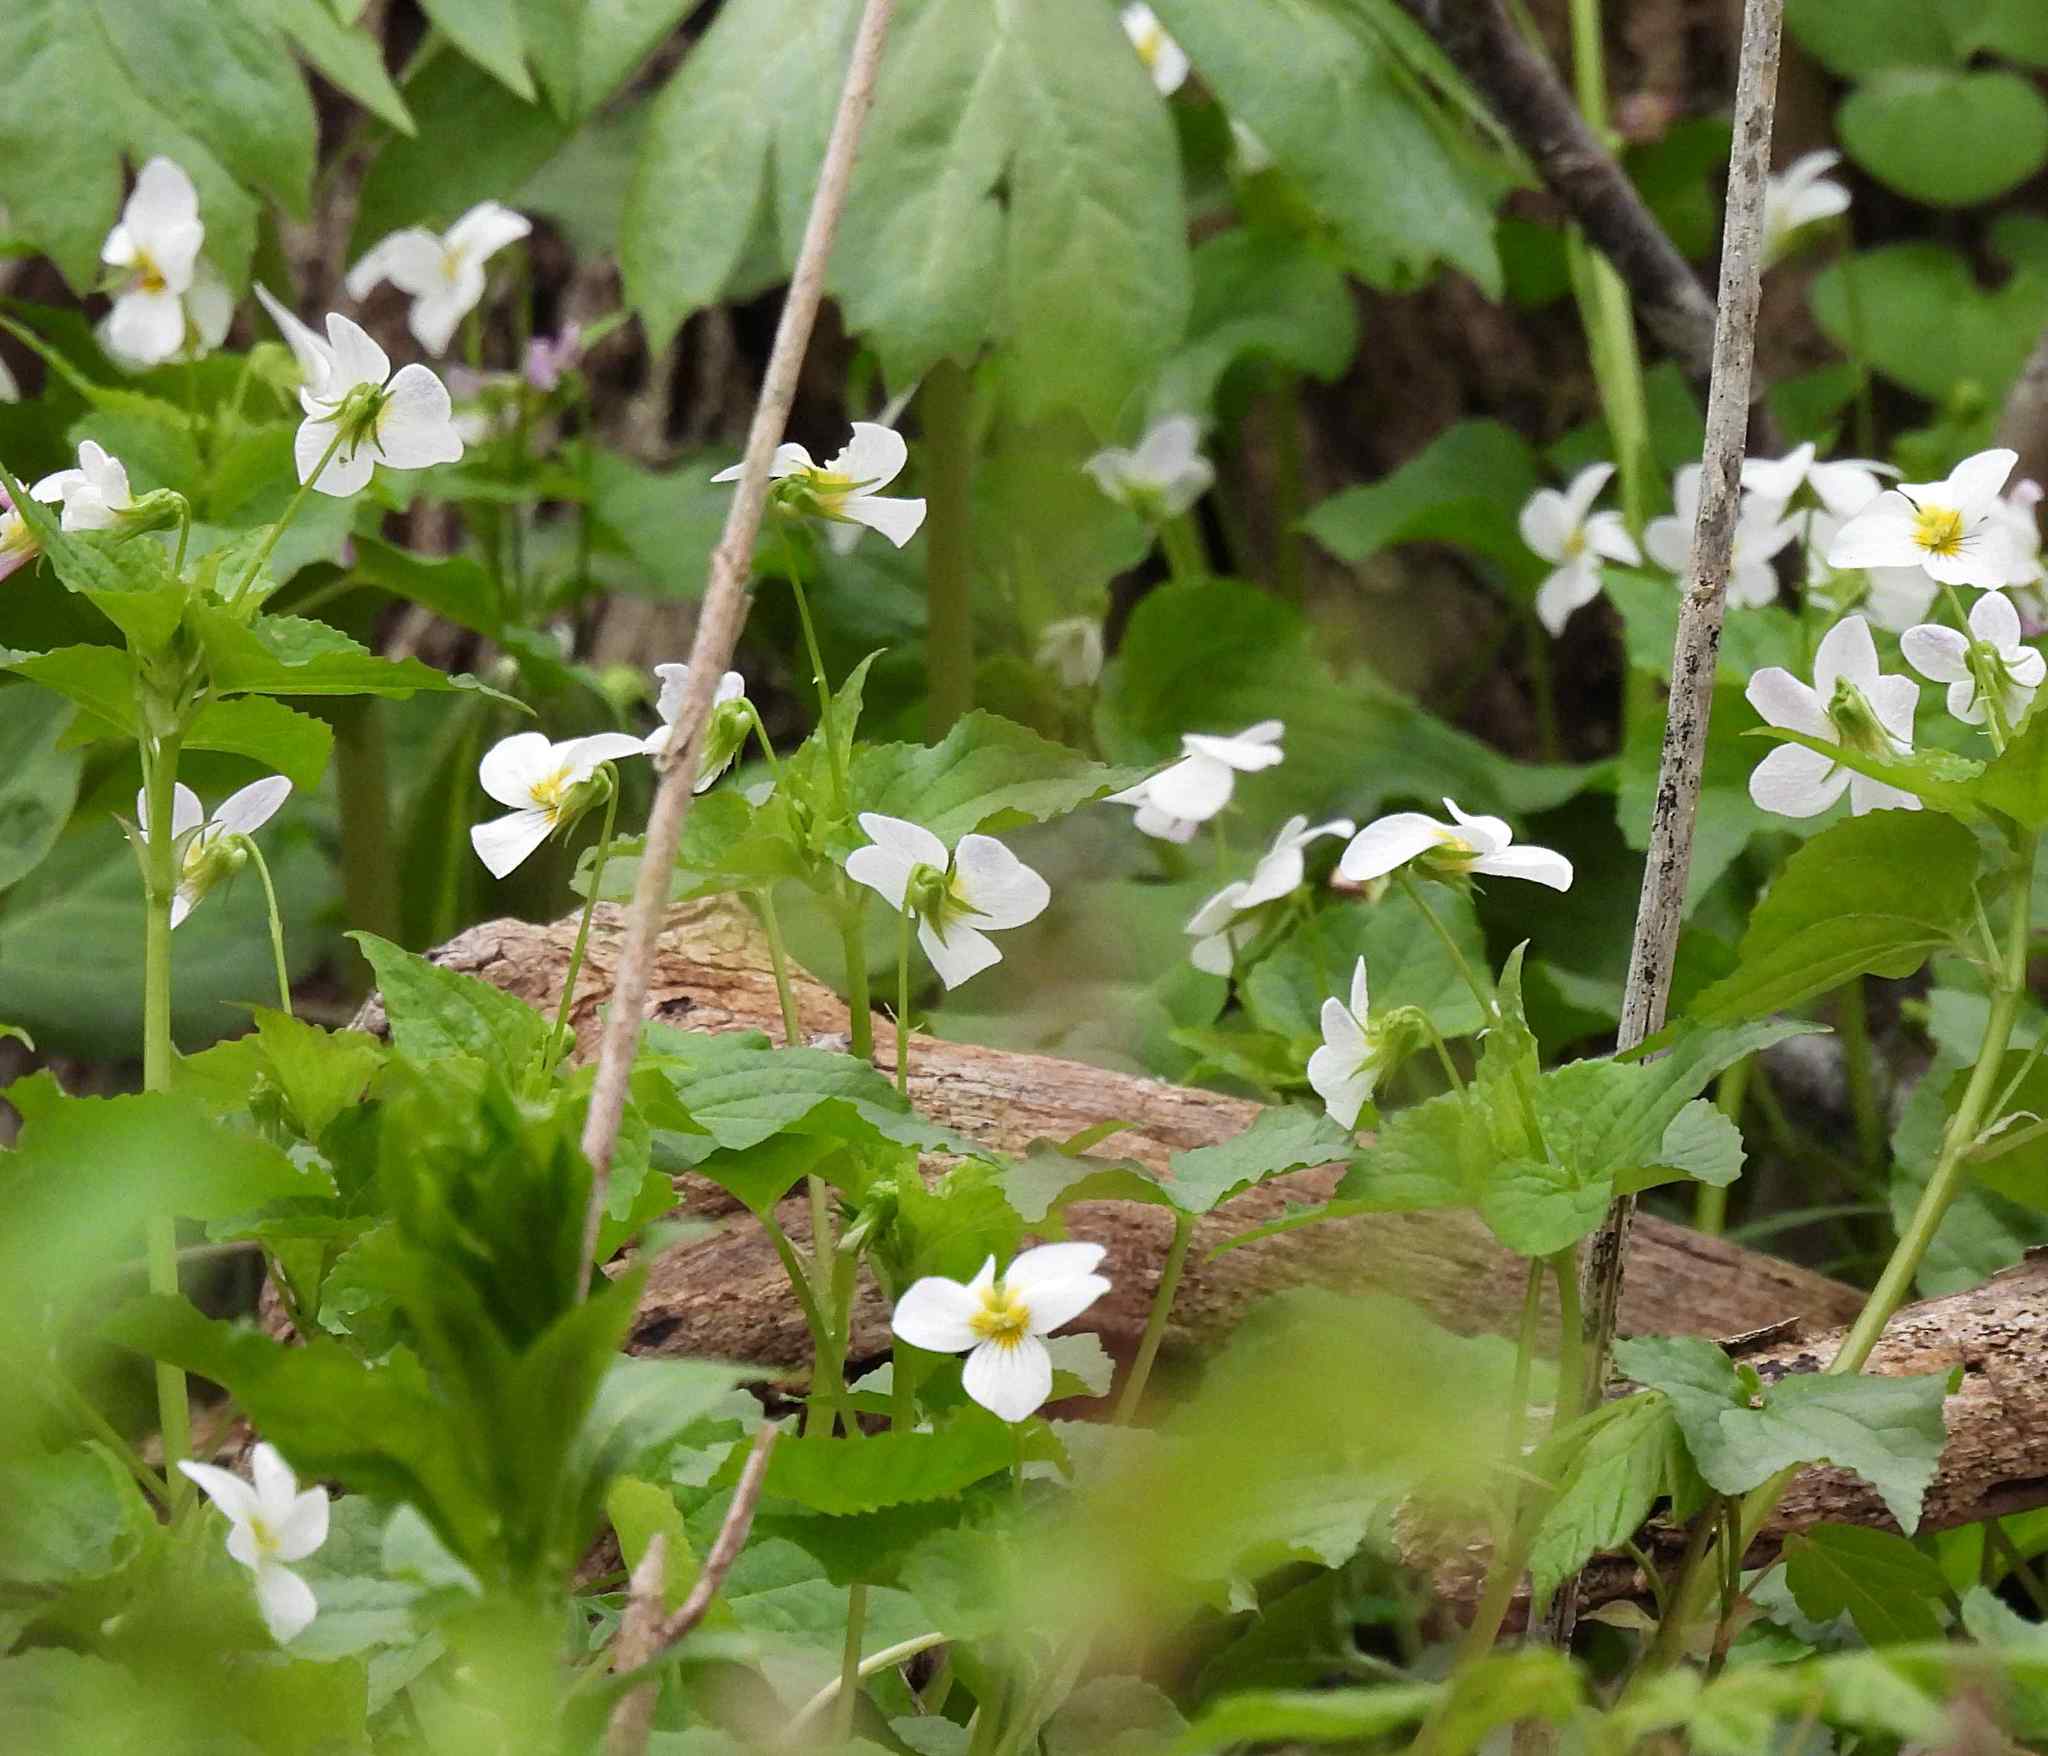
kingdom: Plantae
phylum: Tracheophyta
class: Magnoliopsida
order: Malpighiales
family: Violaceae
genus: Viola
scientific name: Viola canadensis
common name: Canada violet
